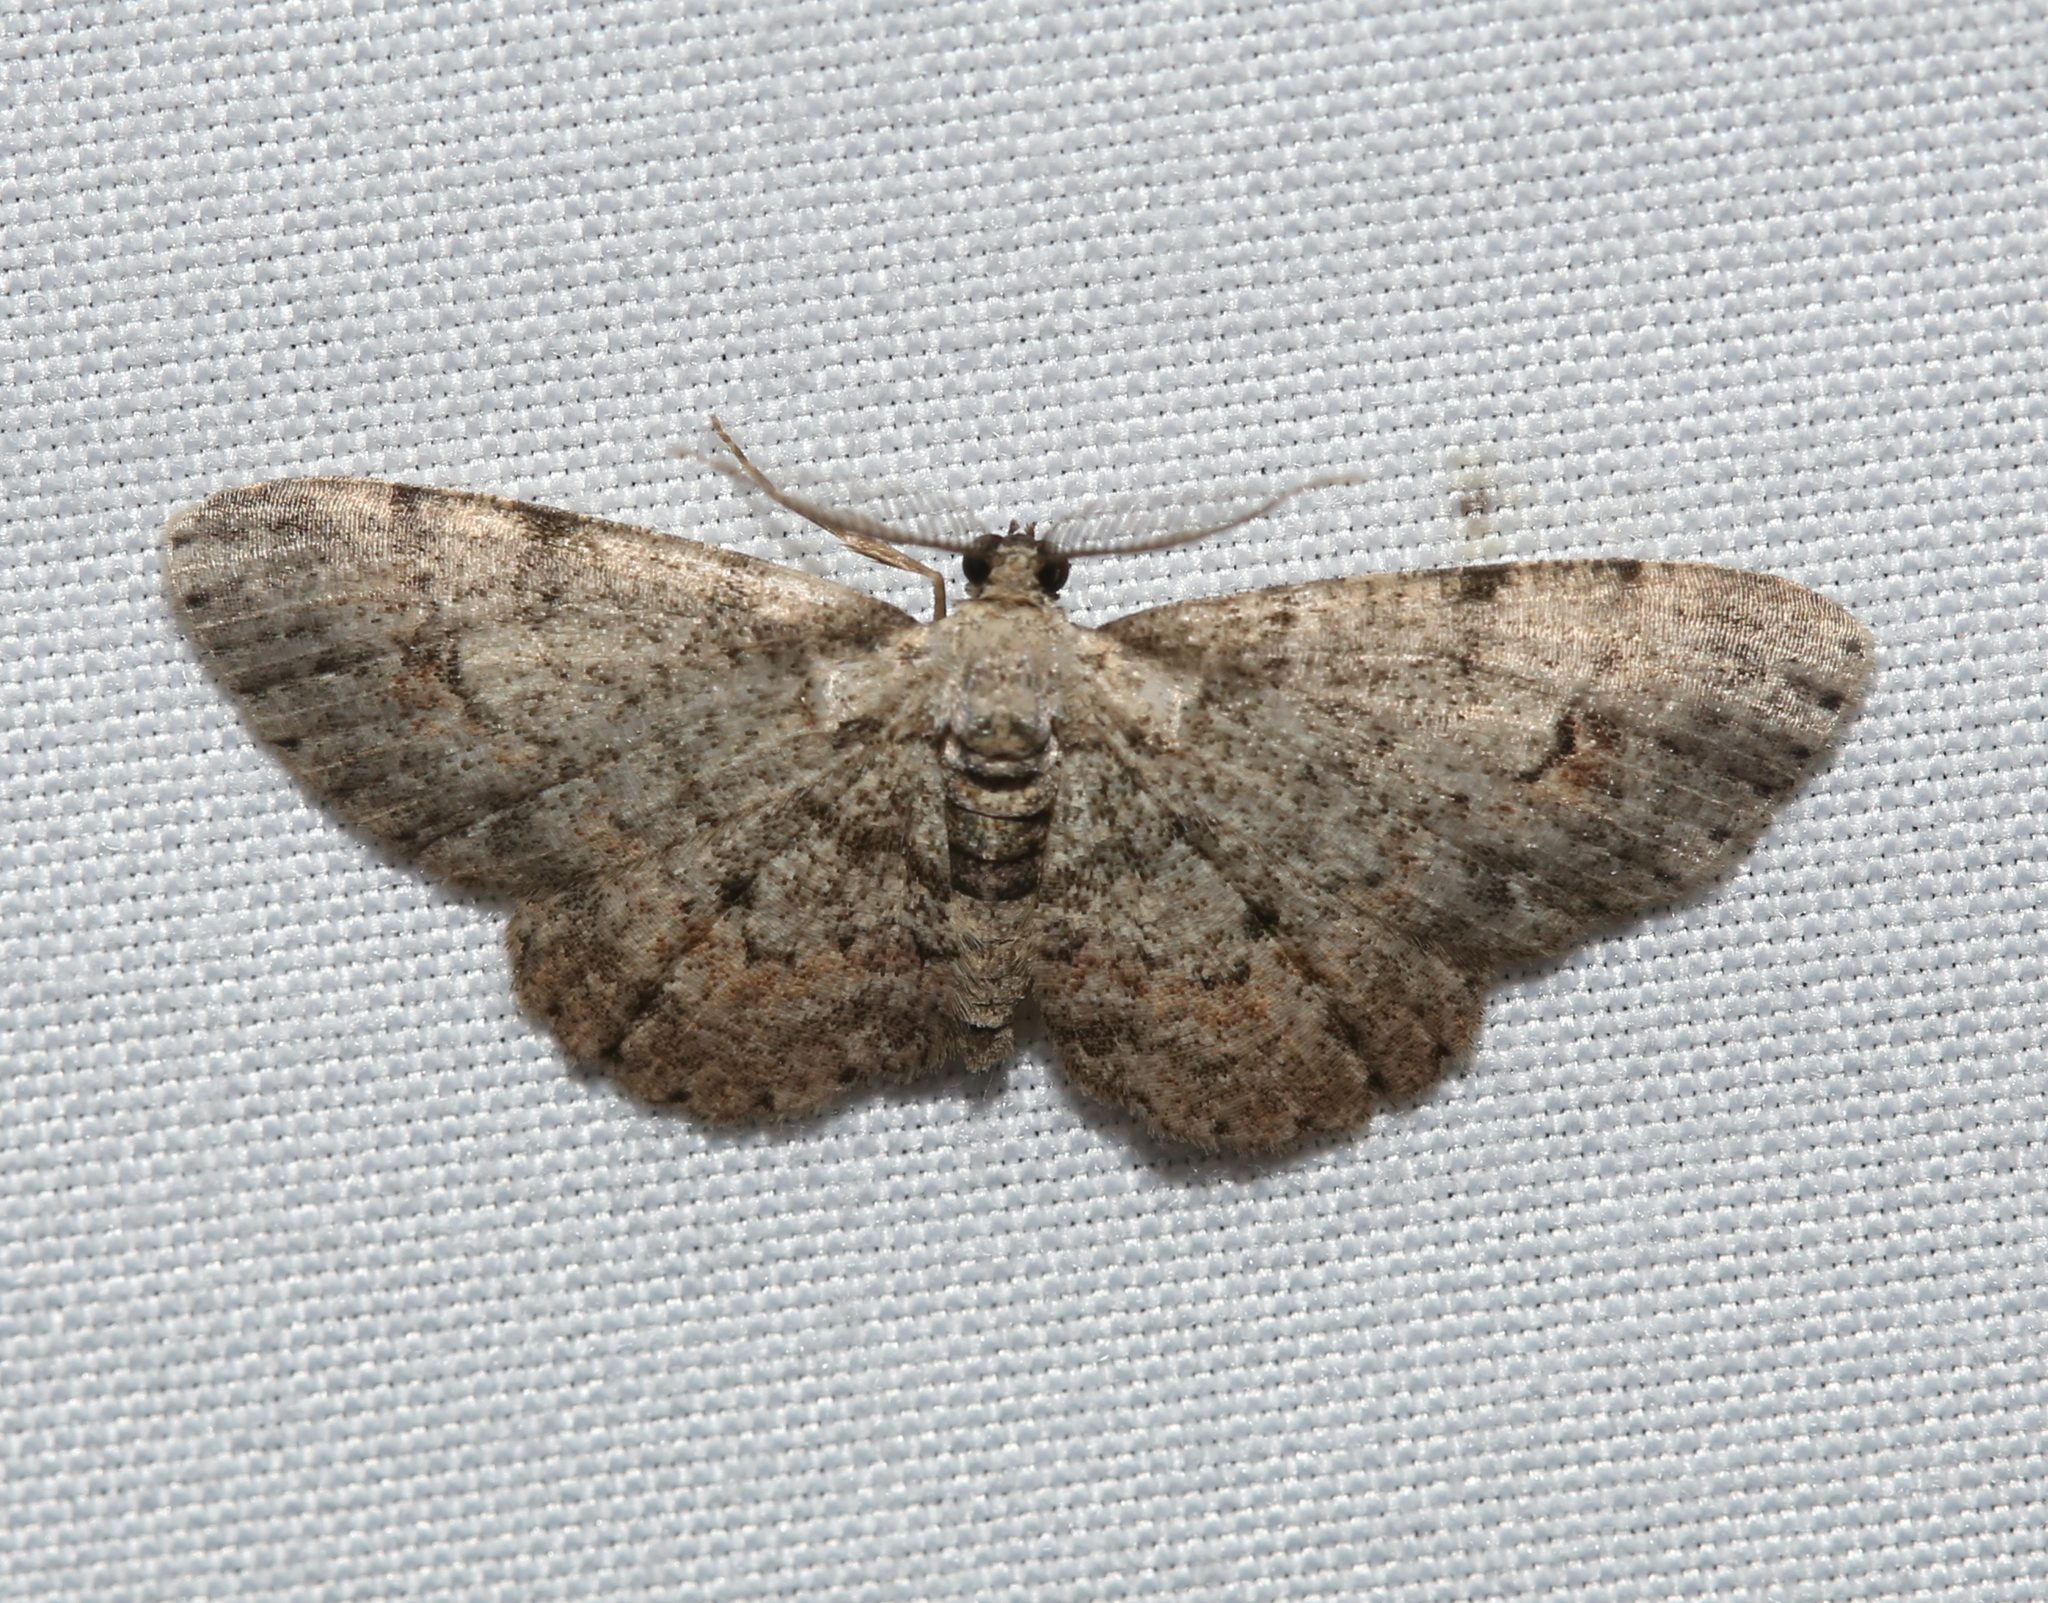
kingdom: Animalia
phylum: Arthropoda
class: Insecta
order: Lepidoptera
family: Geometridae
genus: Glenoides
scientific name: Glenoides texanaria
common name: Texas gray
